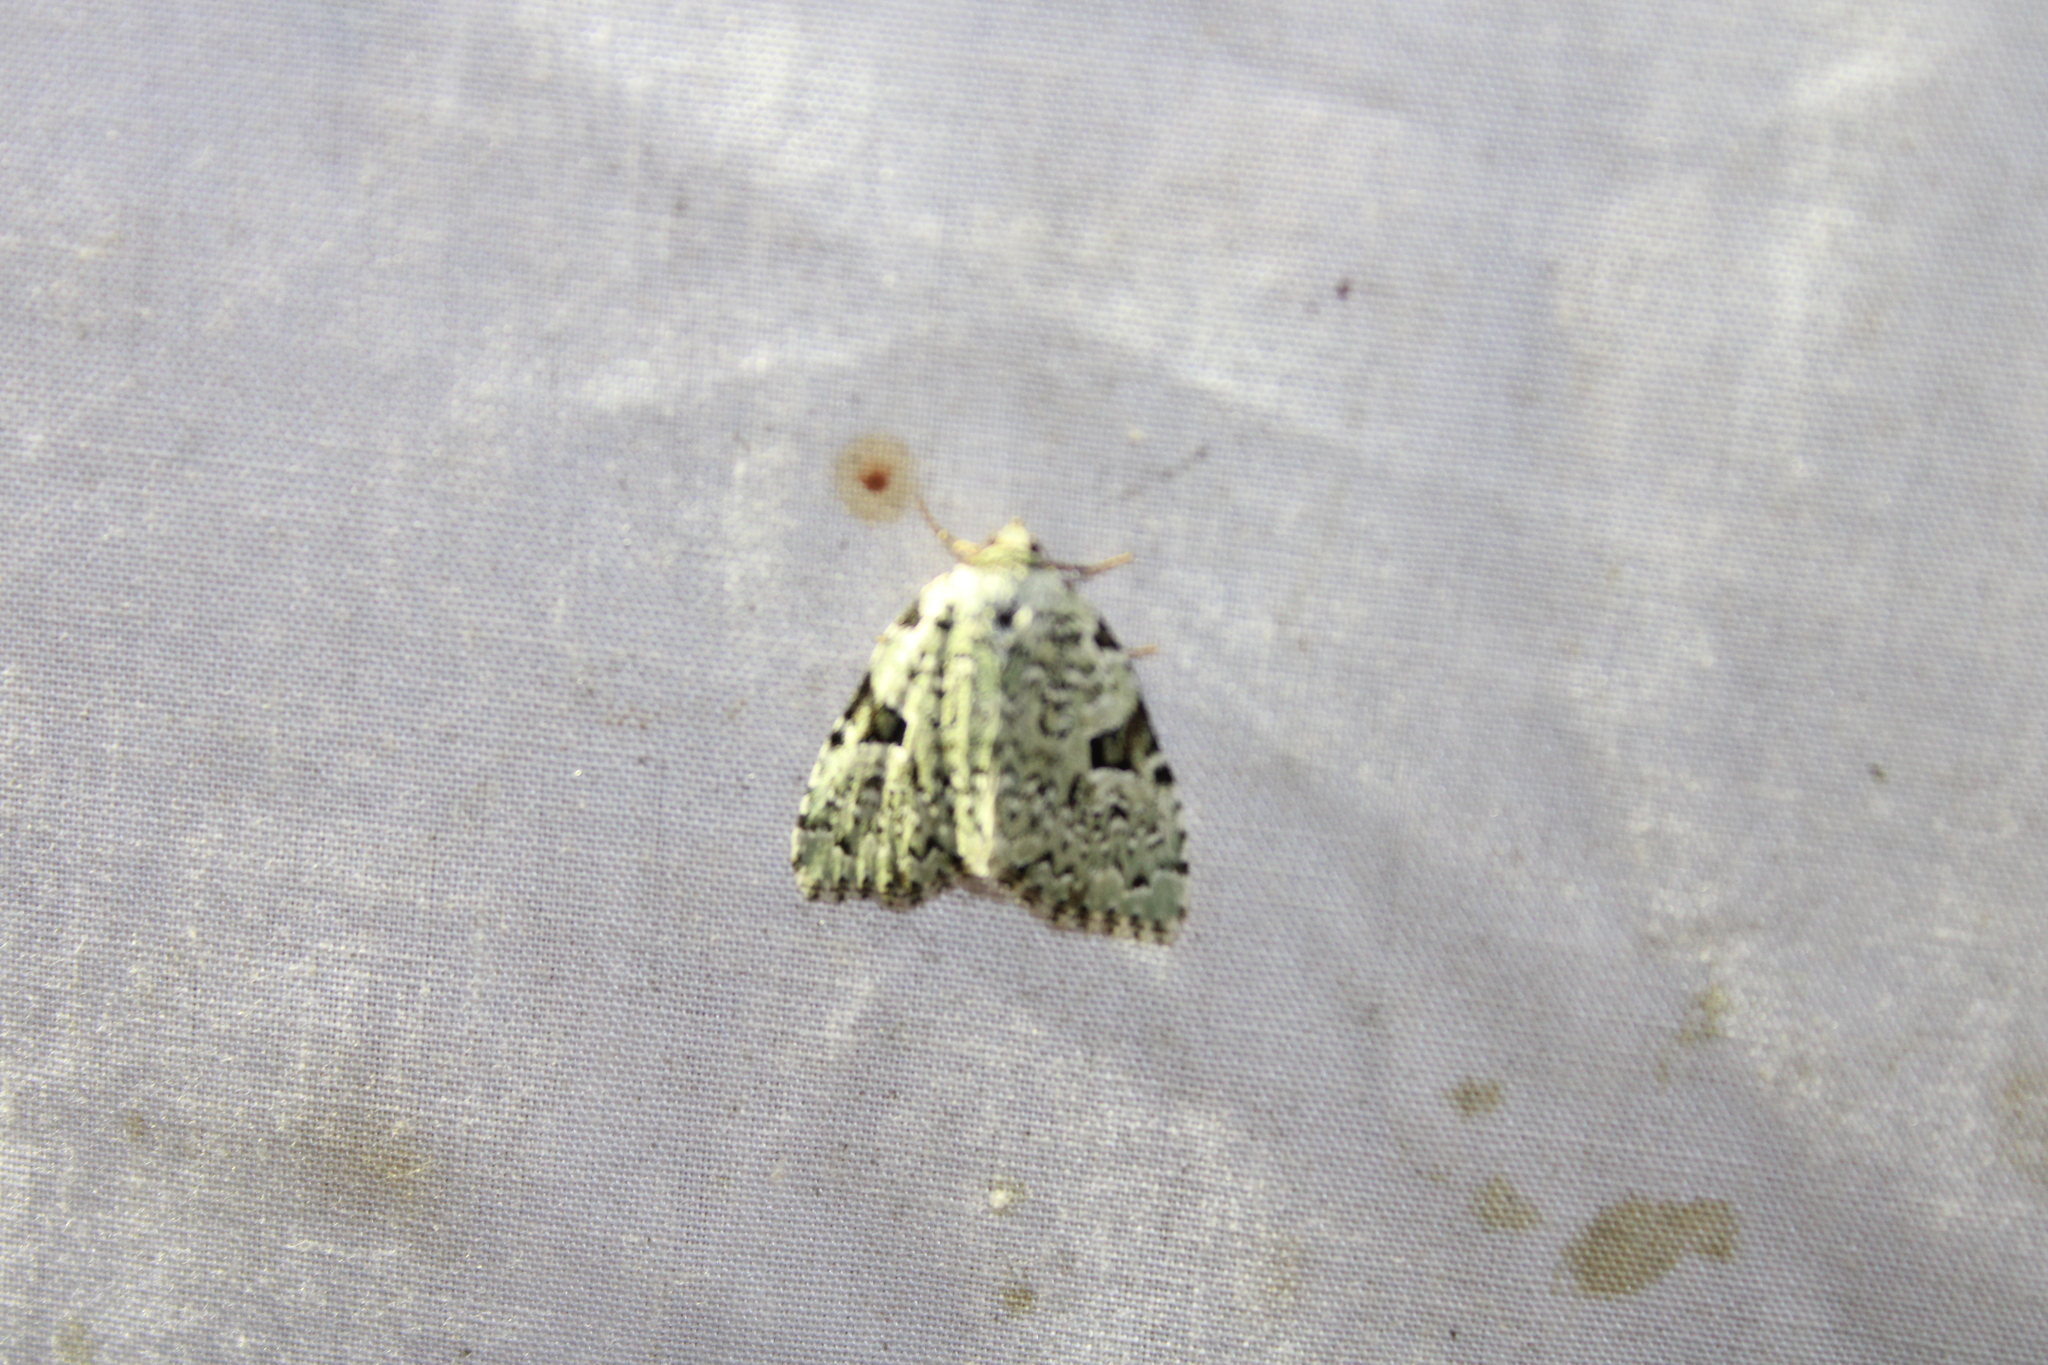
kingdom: Animalia
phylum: Arthropoda
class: Insecta
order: Lepidoptera
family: Noctuidae
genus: Leuconycta
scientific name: Leuconycta diphteroides
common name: Green leuconycta moth
